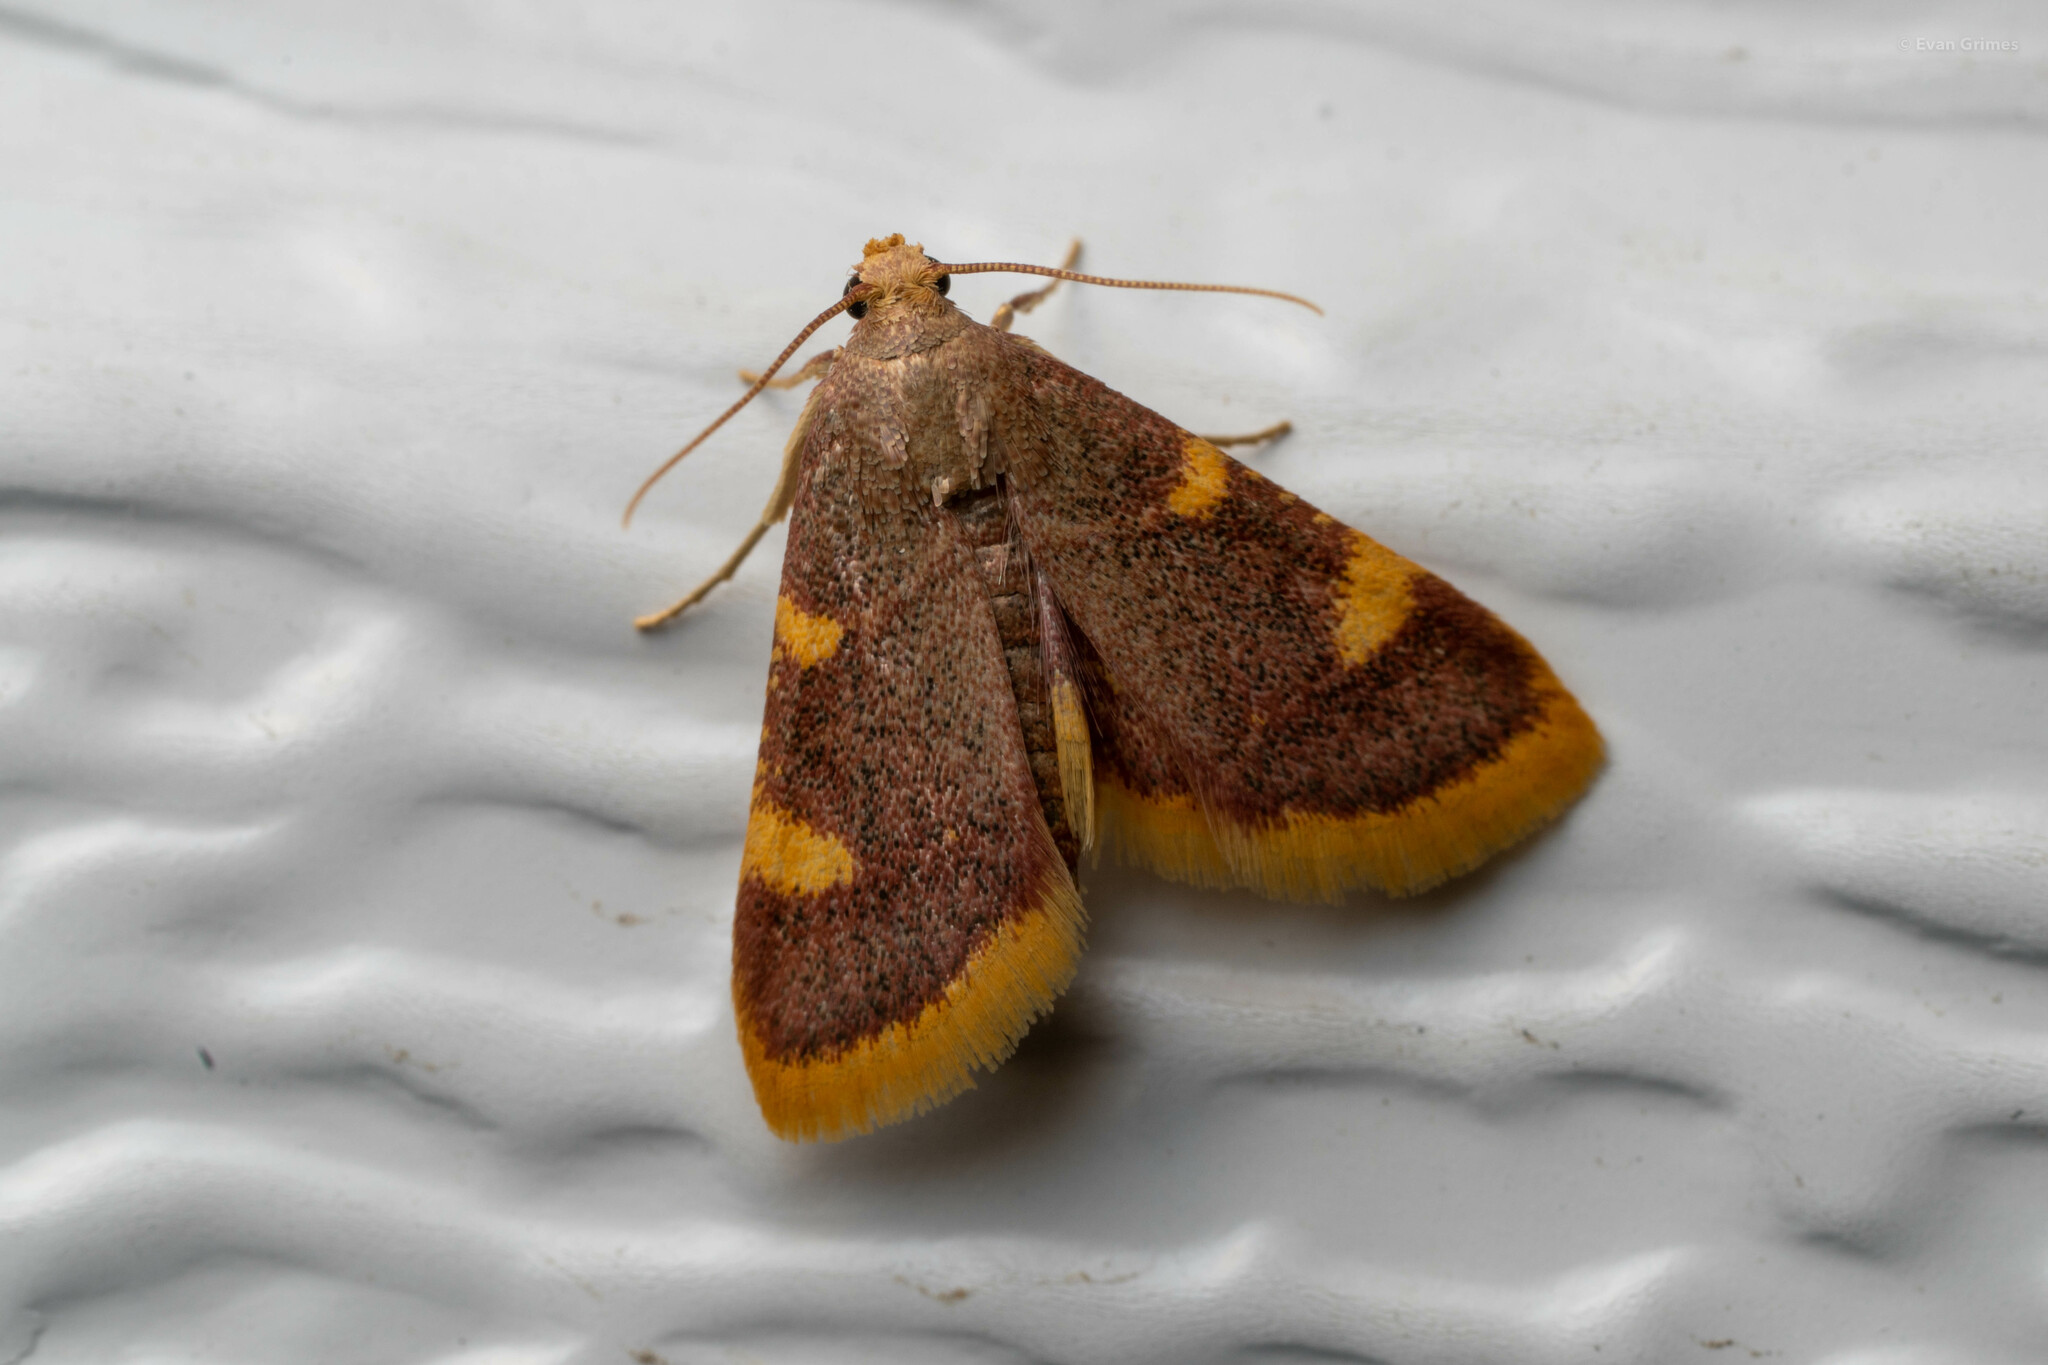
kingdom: Animalia
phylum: Arthropoda
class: Insecta
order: Lepidoptera
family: Pyralidae
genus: Hypsopygia
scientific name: Hypsopygia costalis
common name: Gold triangle
